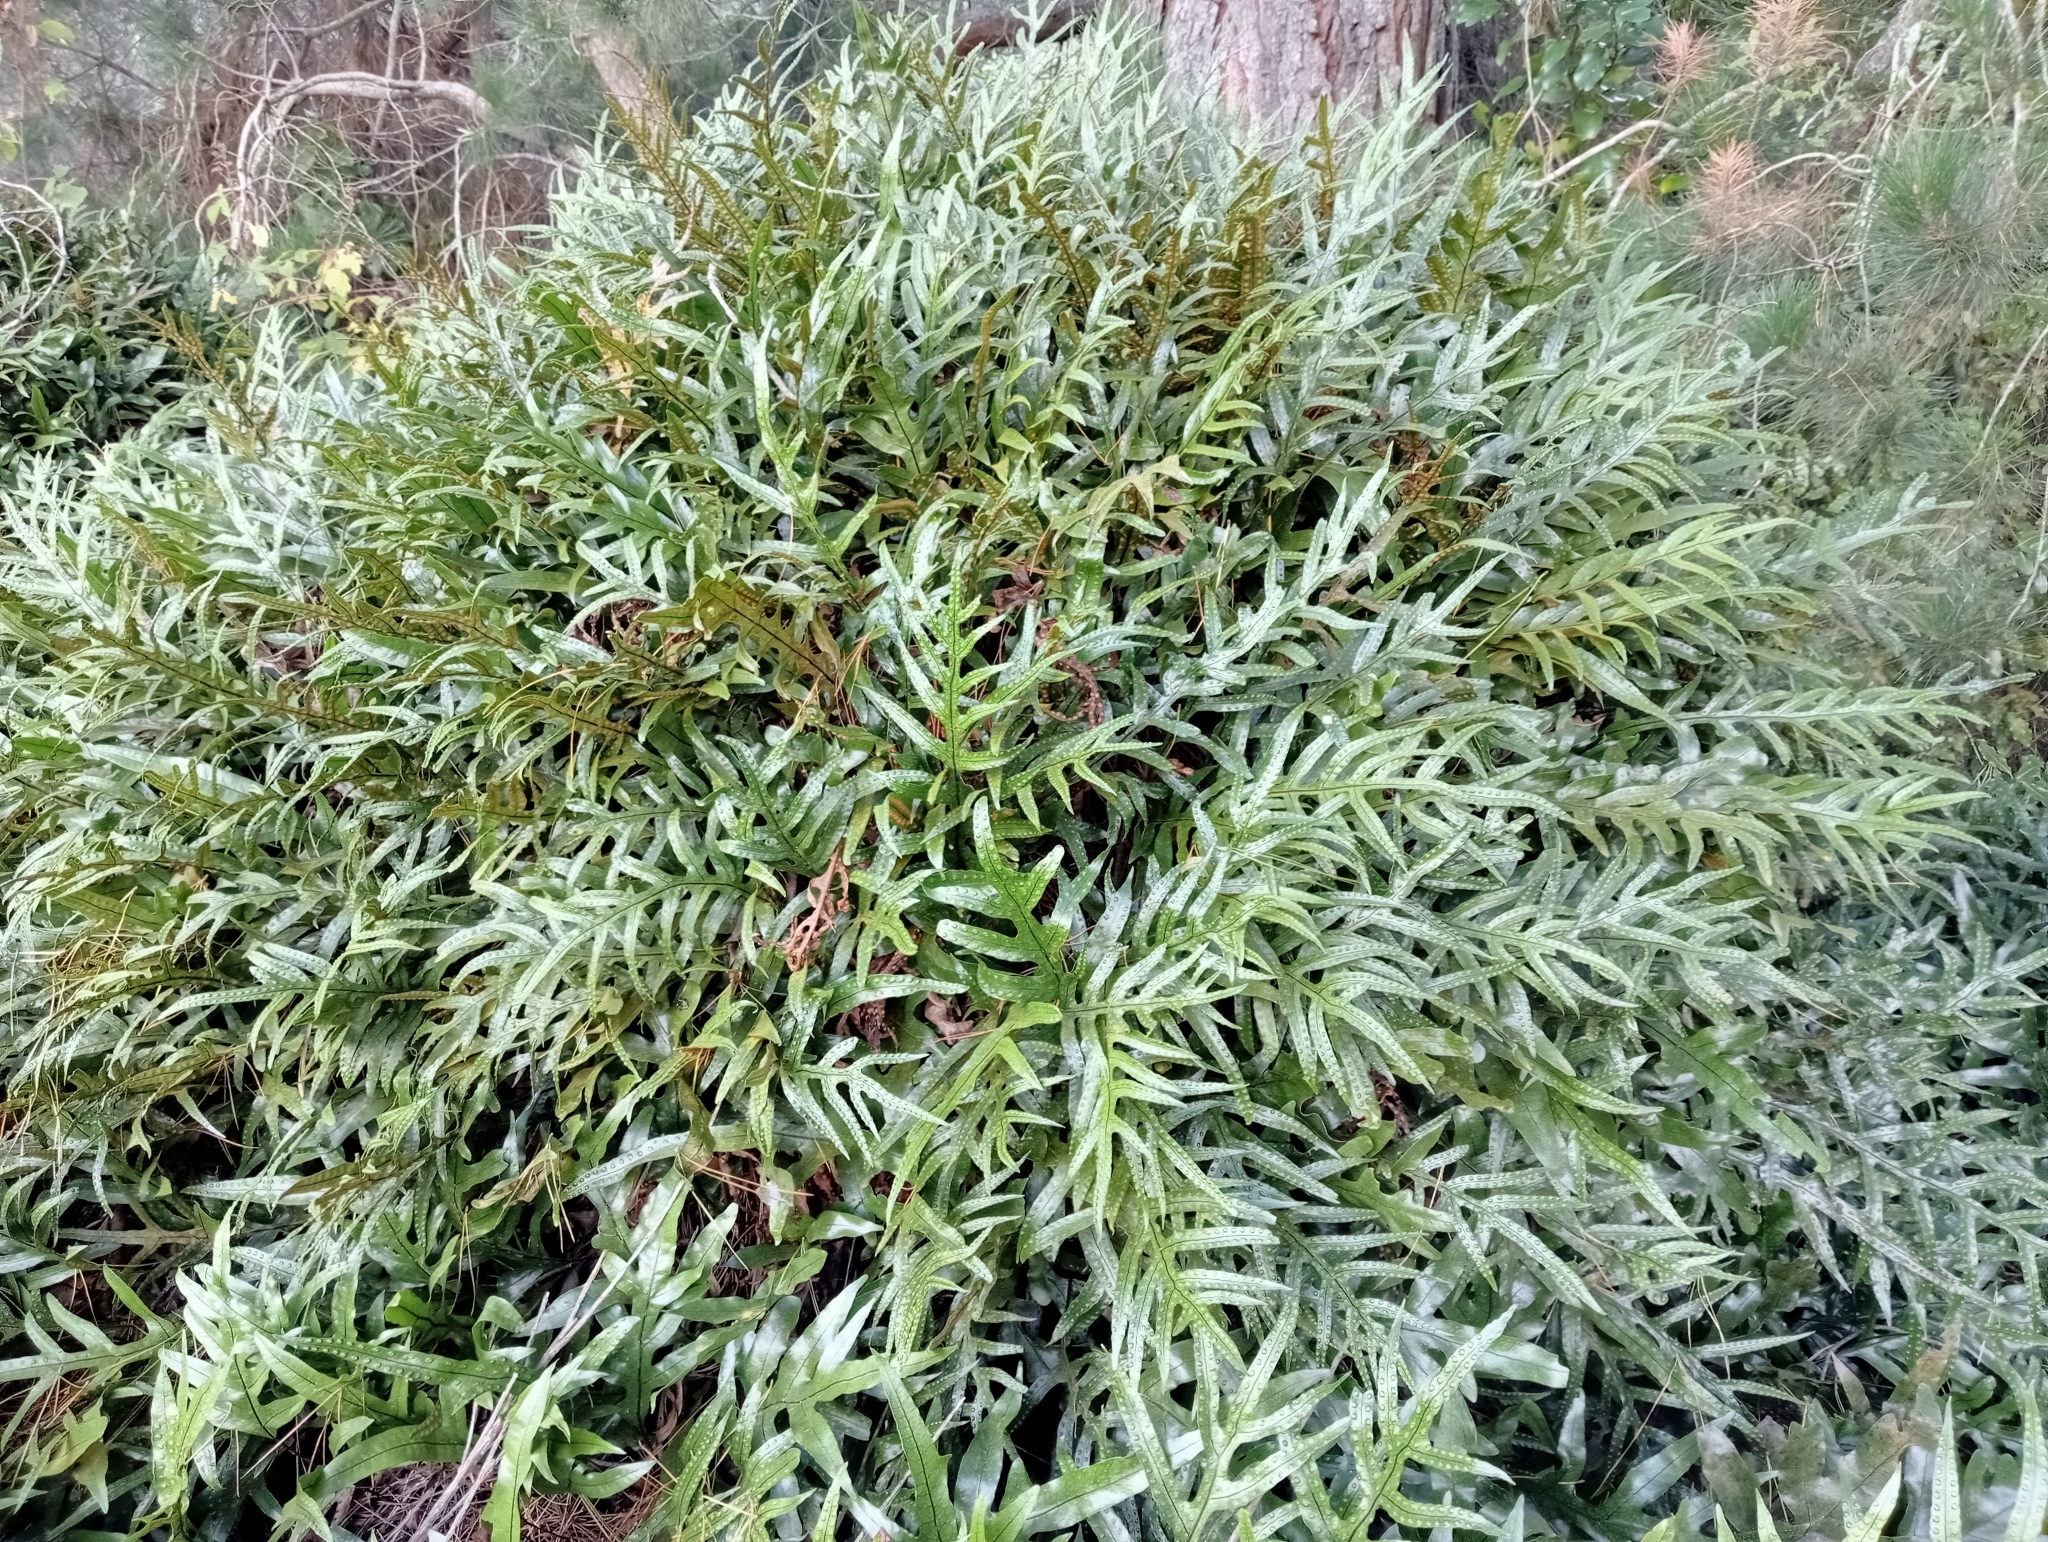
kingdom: Plantae
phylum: Tracheophyta
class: Polypodiopsida
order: Polypodiales
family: Polypodiaceae
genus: Lecanopteris
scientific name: Lecanopteris pustulata
